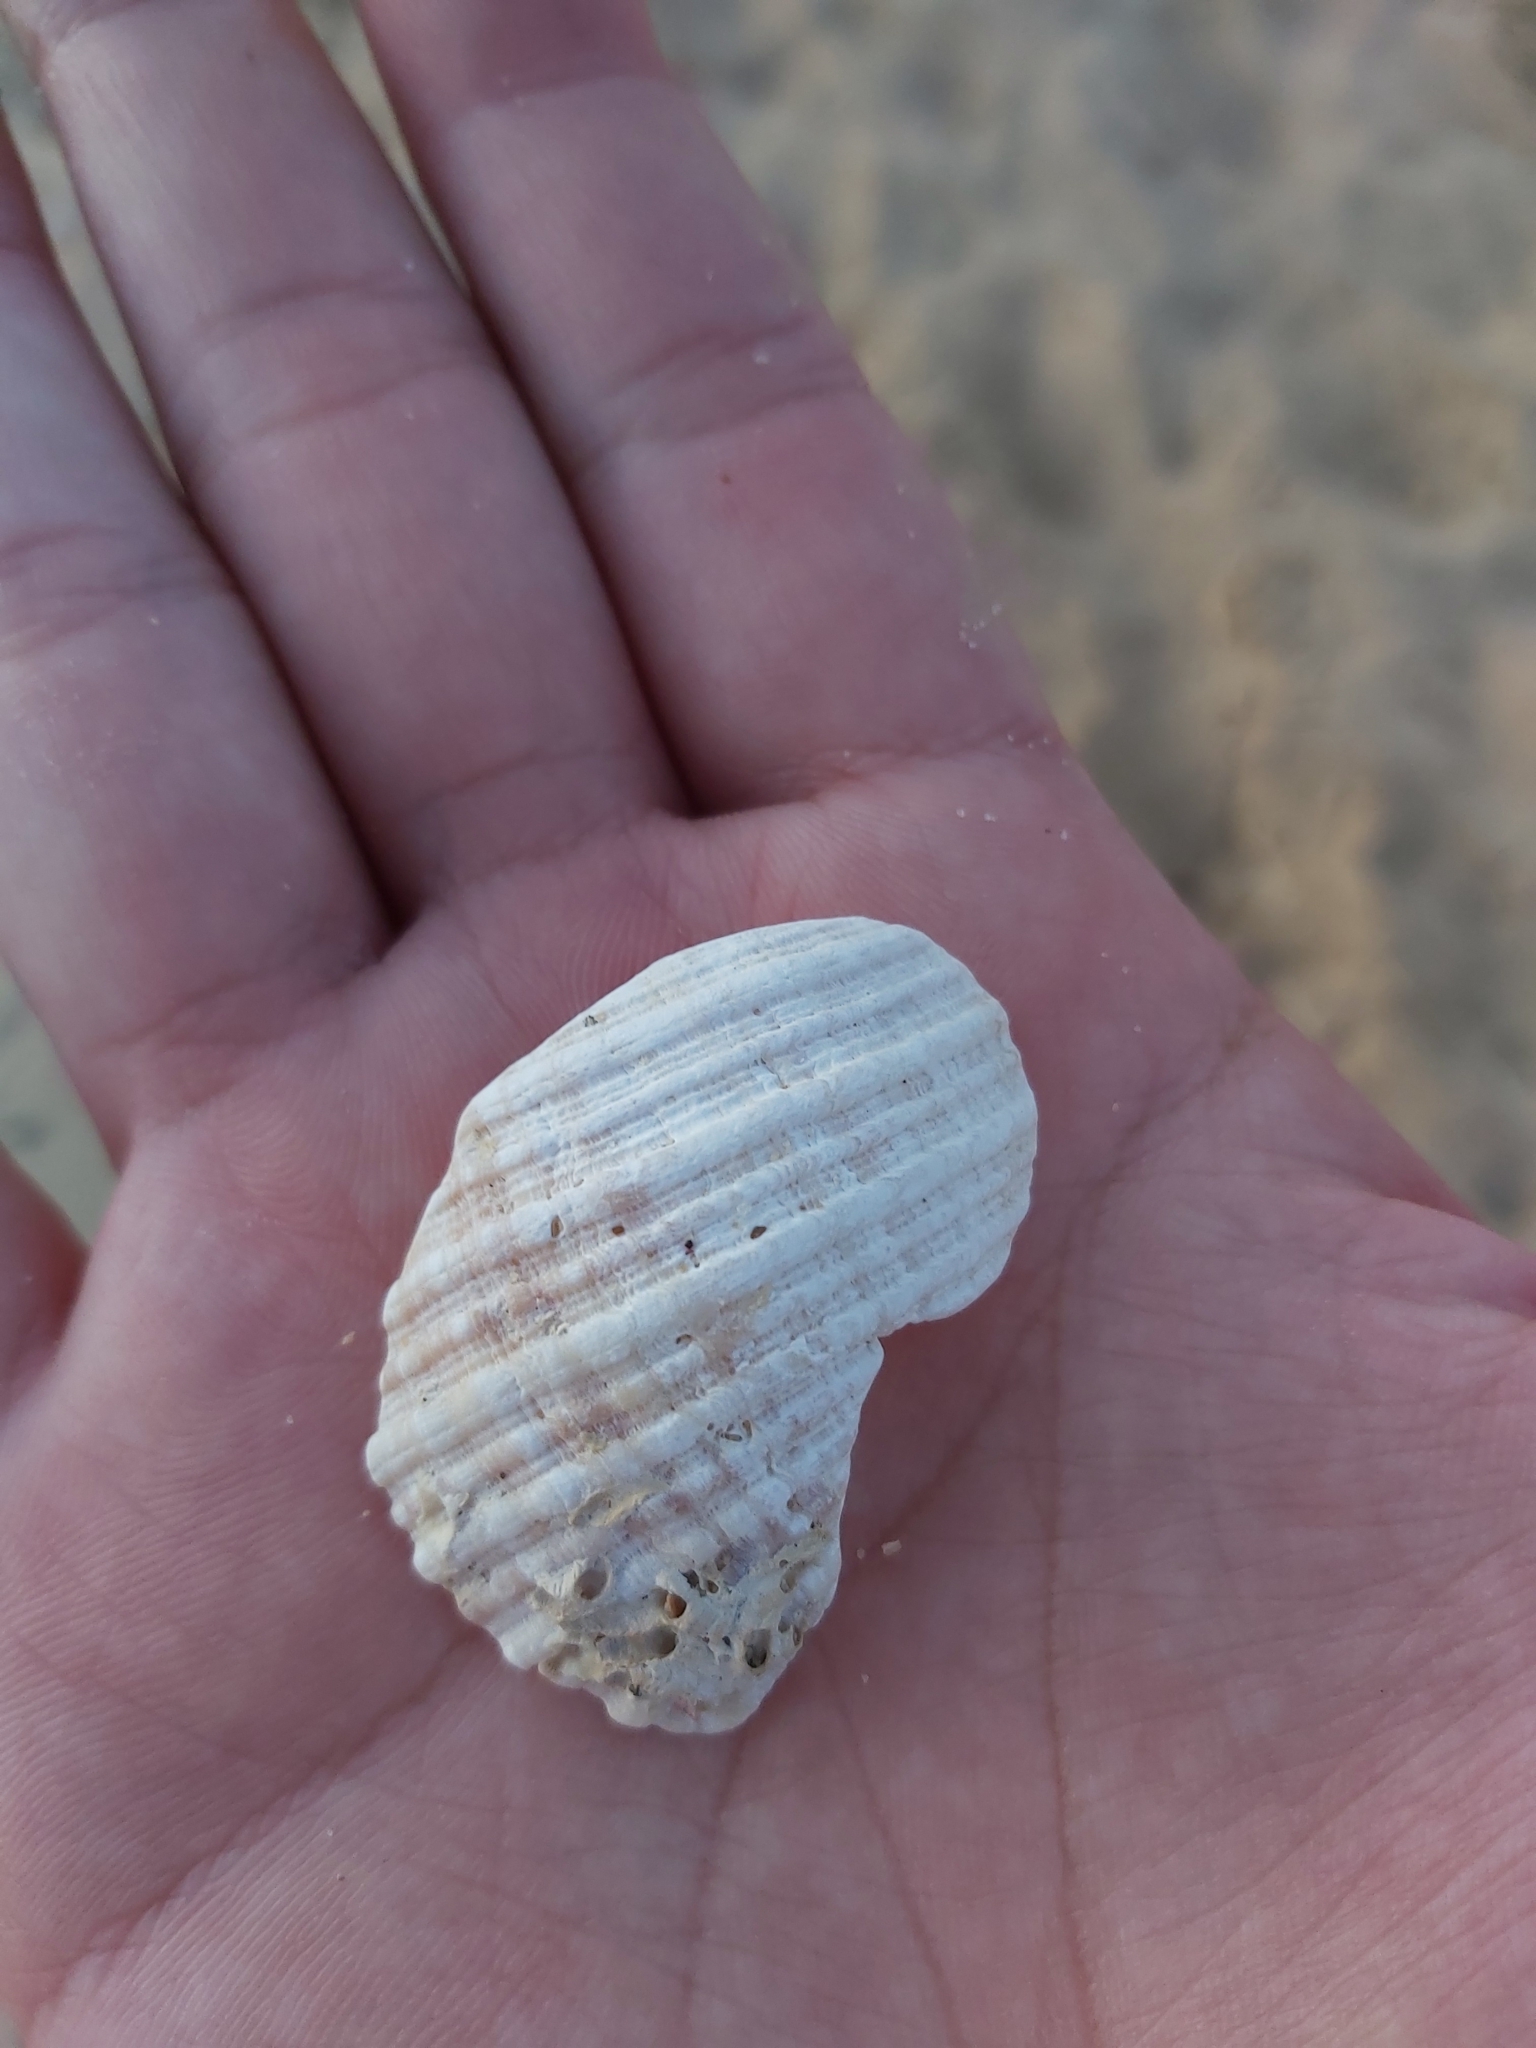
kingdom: Animalia
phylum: Mollusca
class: Gastropoda
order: Neogastropoda
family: Muricidae
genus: Dicathais
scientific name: Dicathais orbita
